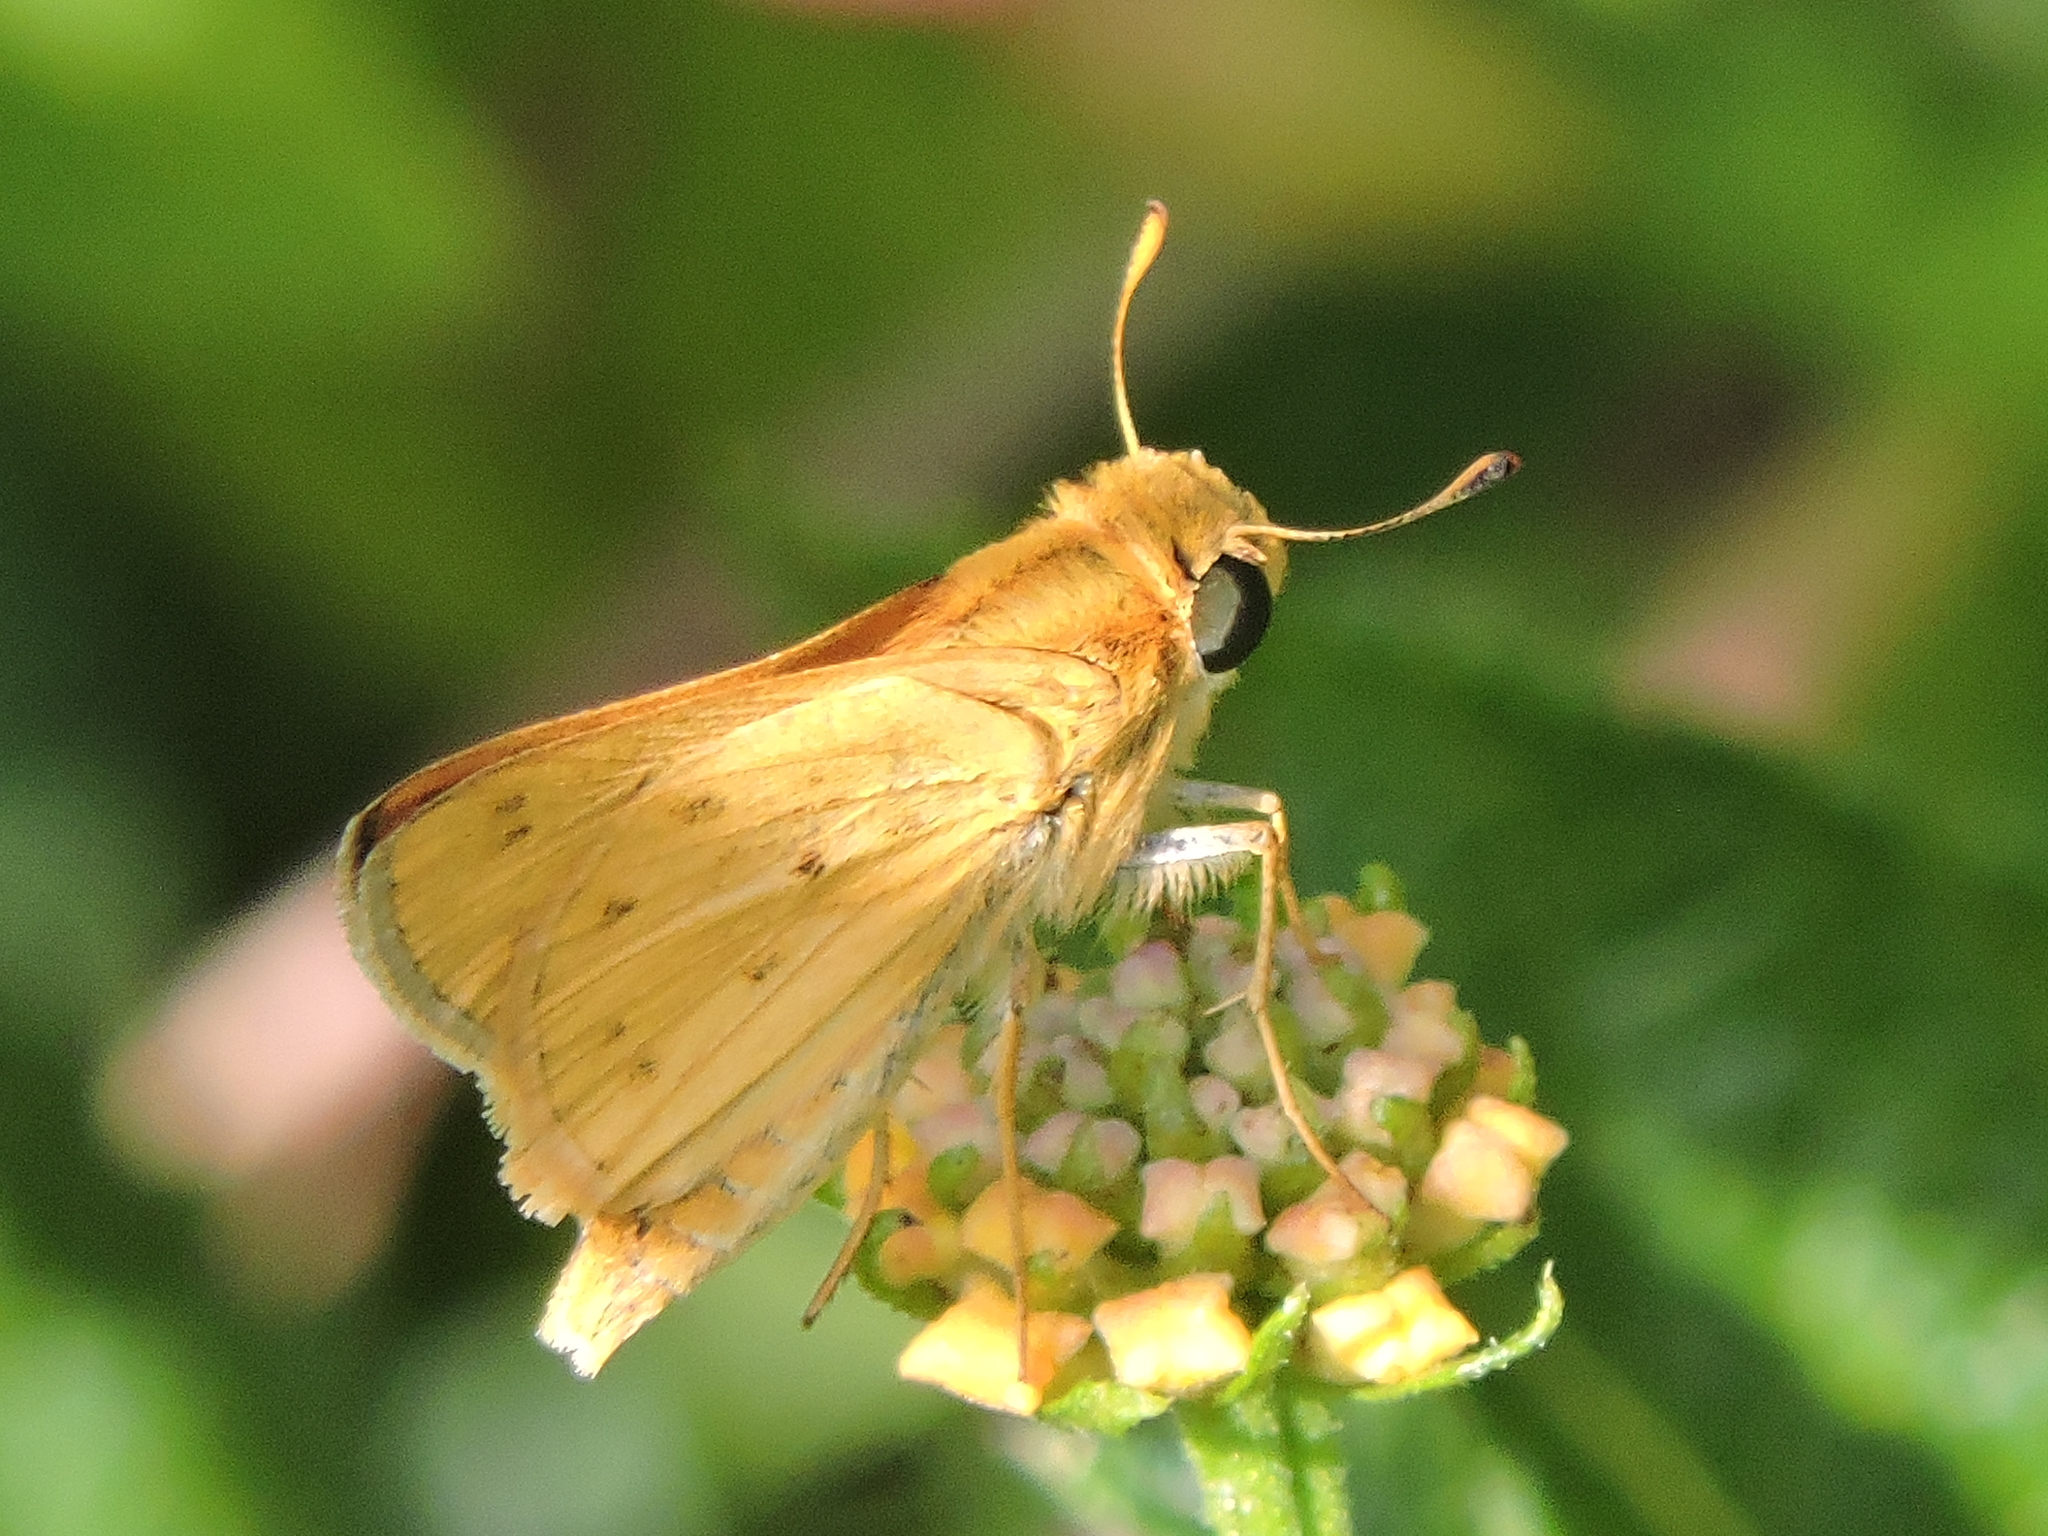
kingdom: Animalia
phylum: Arthropoda
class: Insecta
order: Lepidoptera
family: Hesperiidae
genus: Hylephila
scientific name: Hylephila phyleus
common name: Fiery skipper
